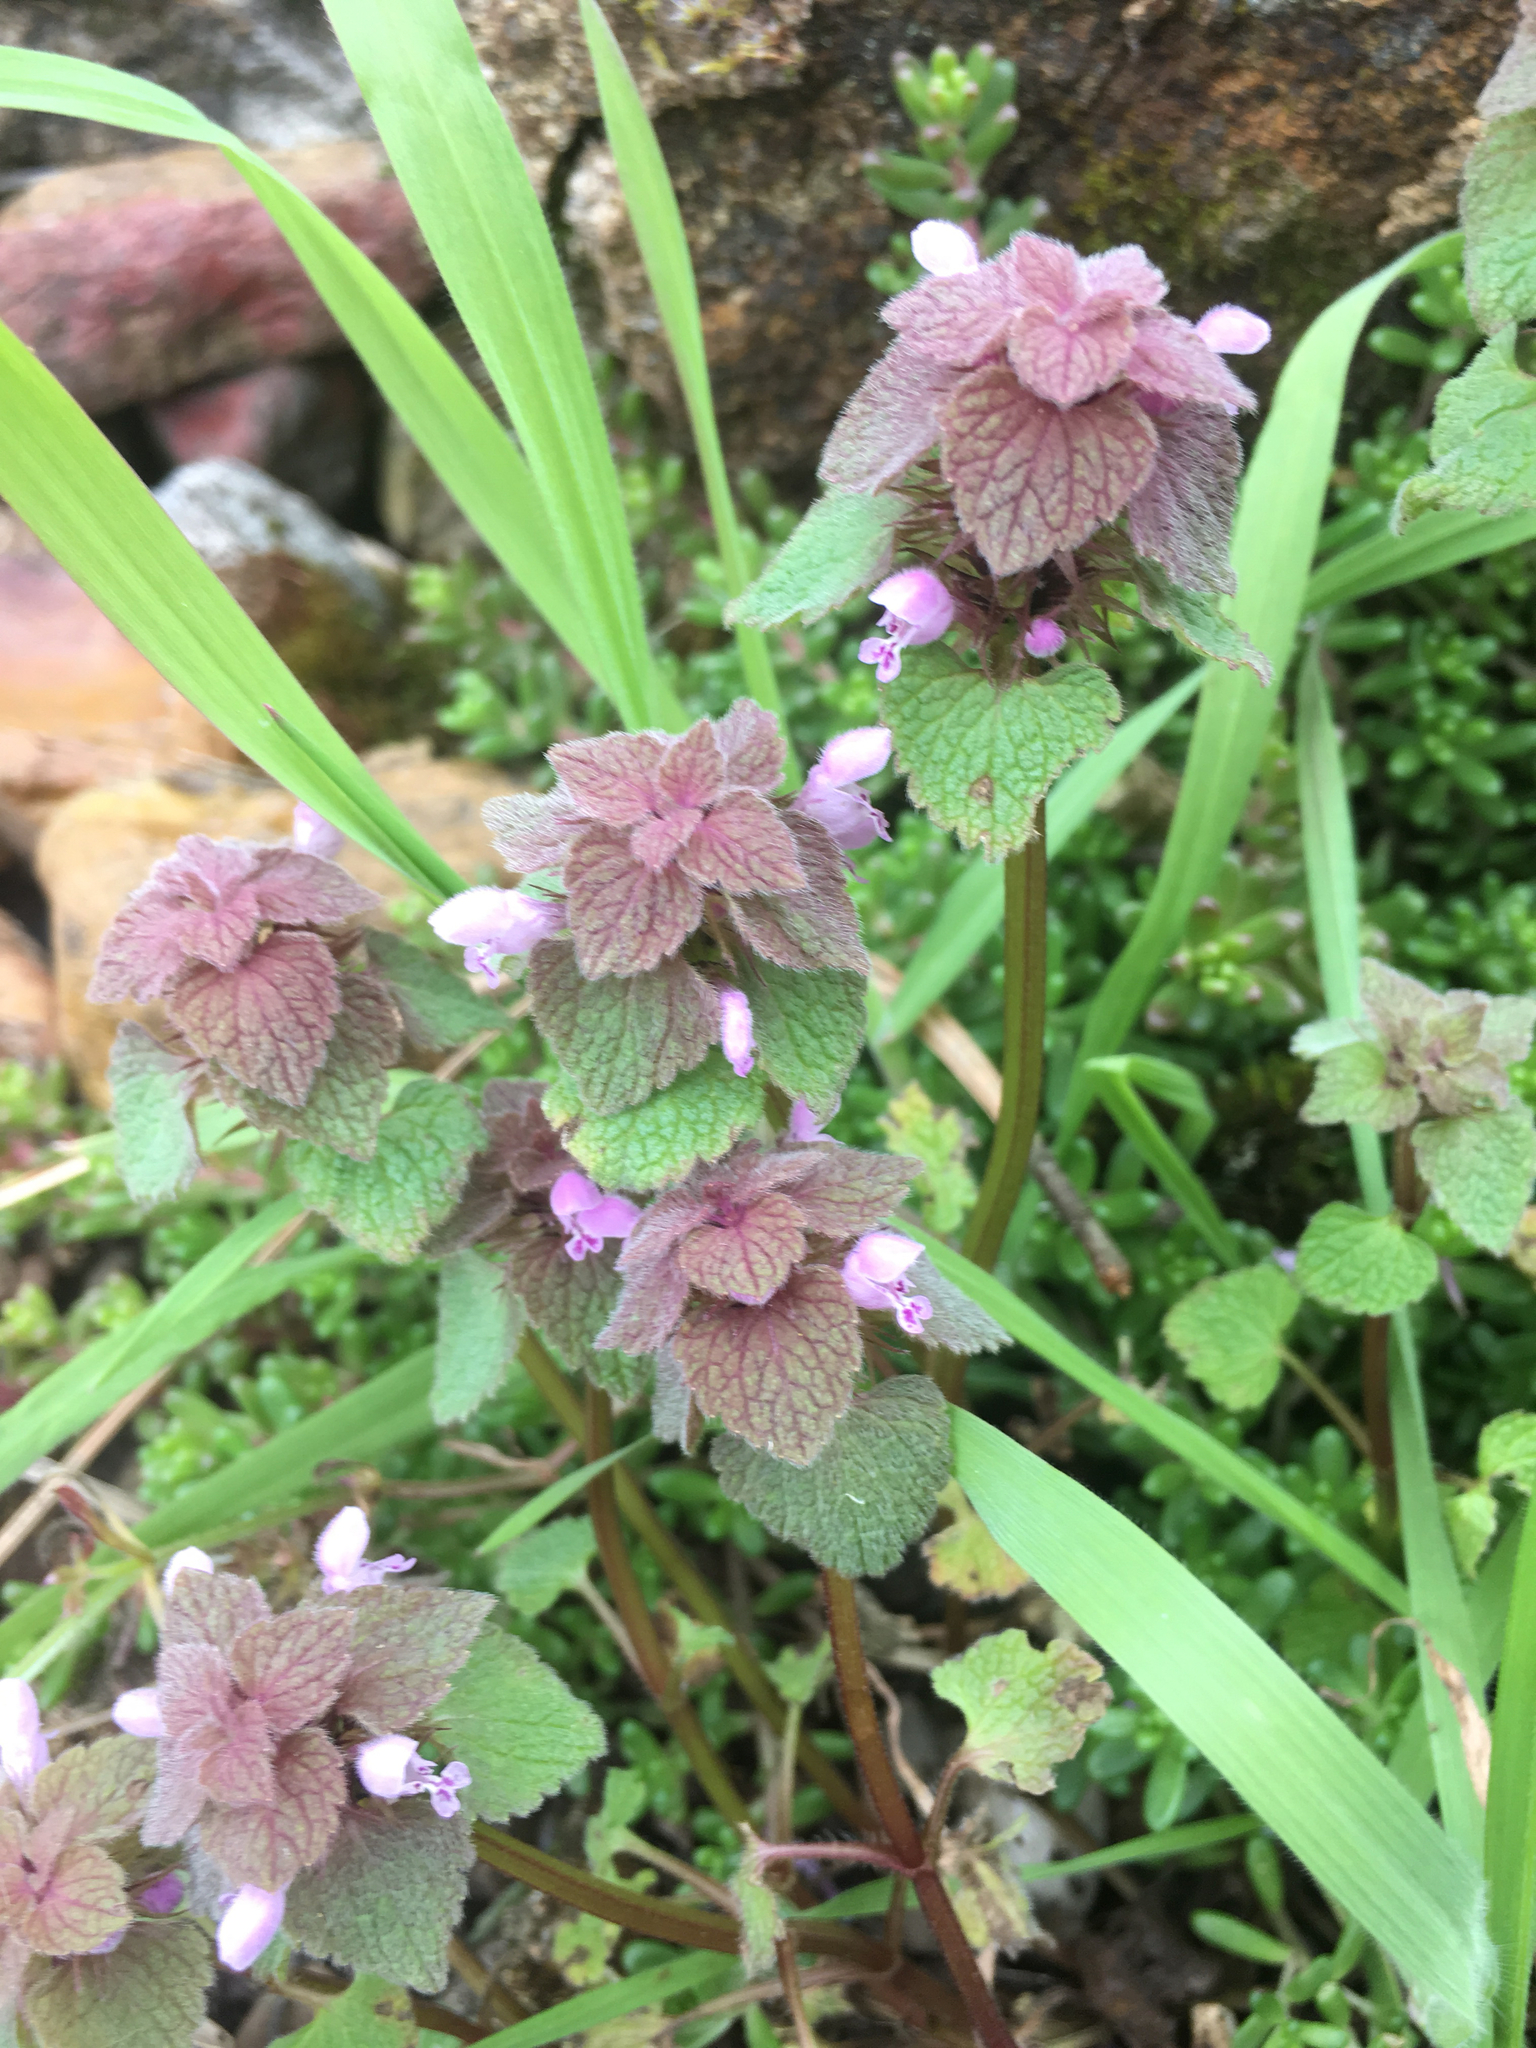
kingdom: Plantae
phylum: Tracheophyta
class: Magnoliopsida
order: Lamiales
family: Lamiaceae
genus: Lamium
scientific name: Lamium purpureum
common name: Red dead-nettle
